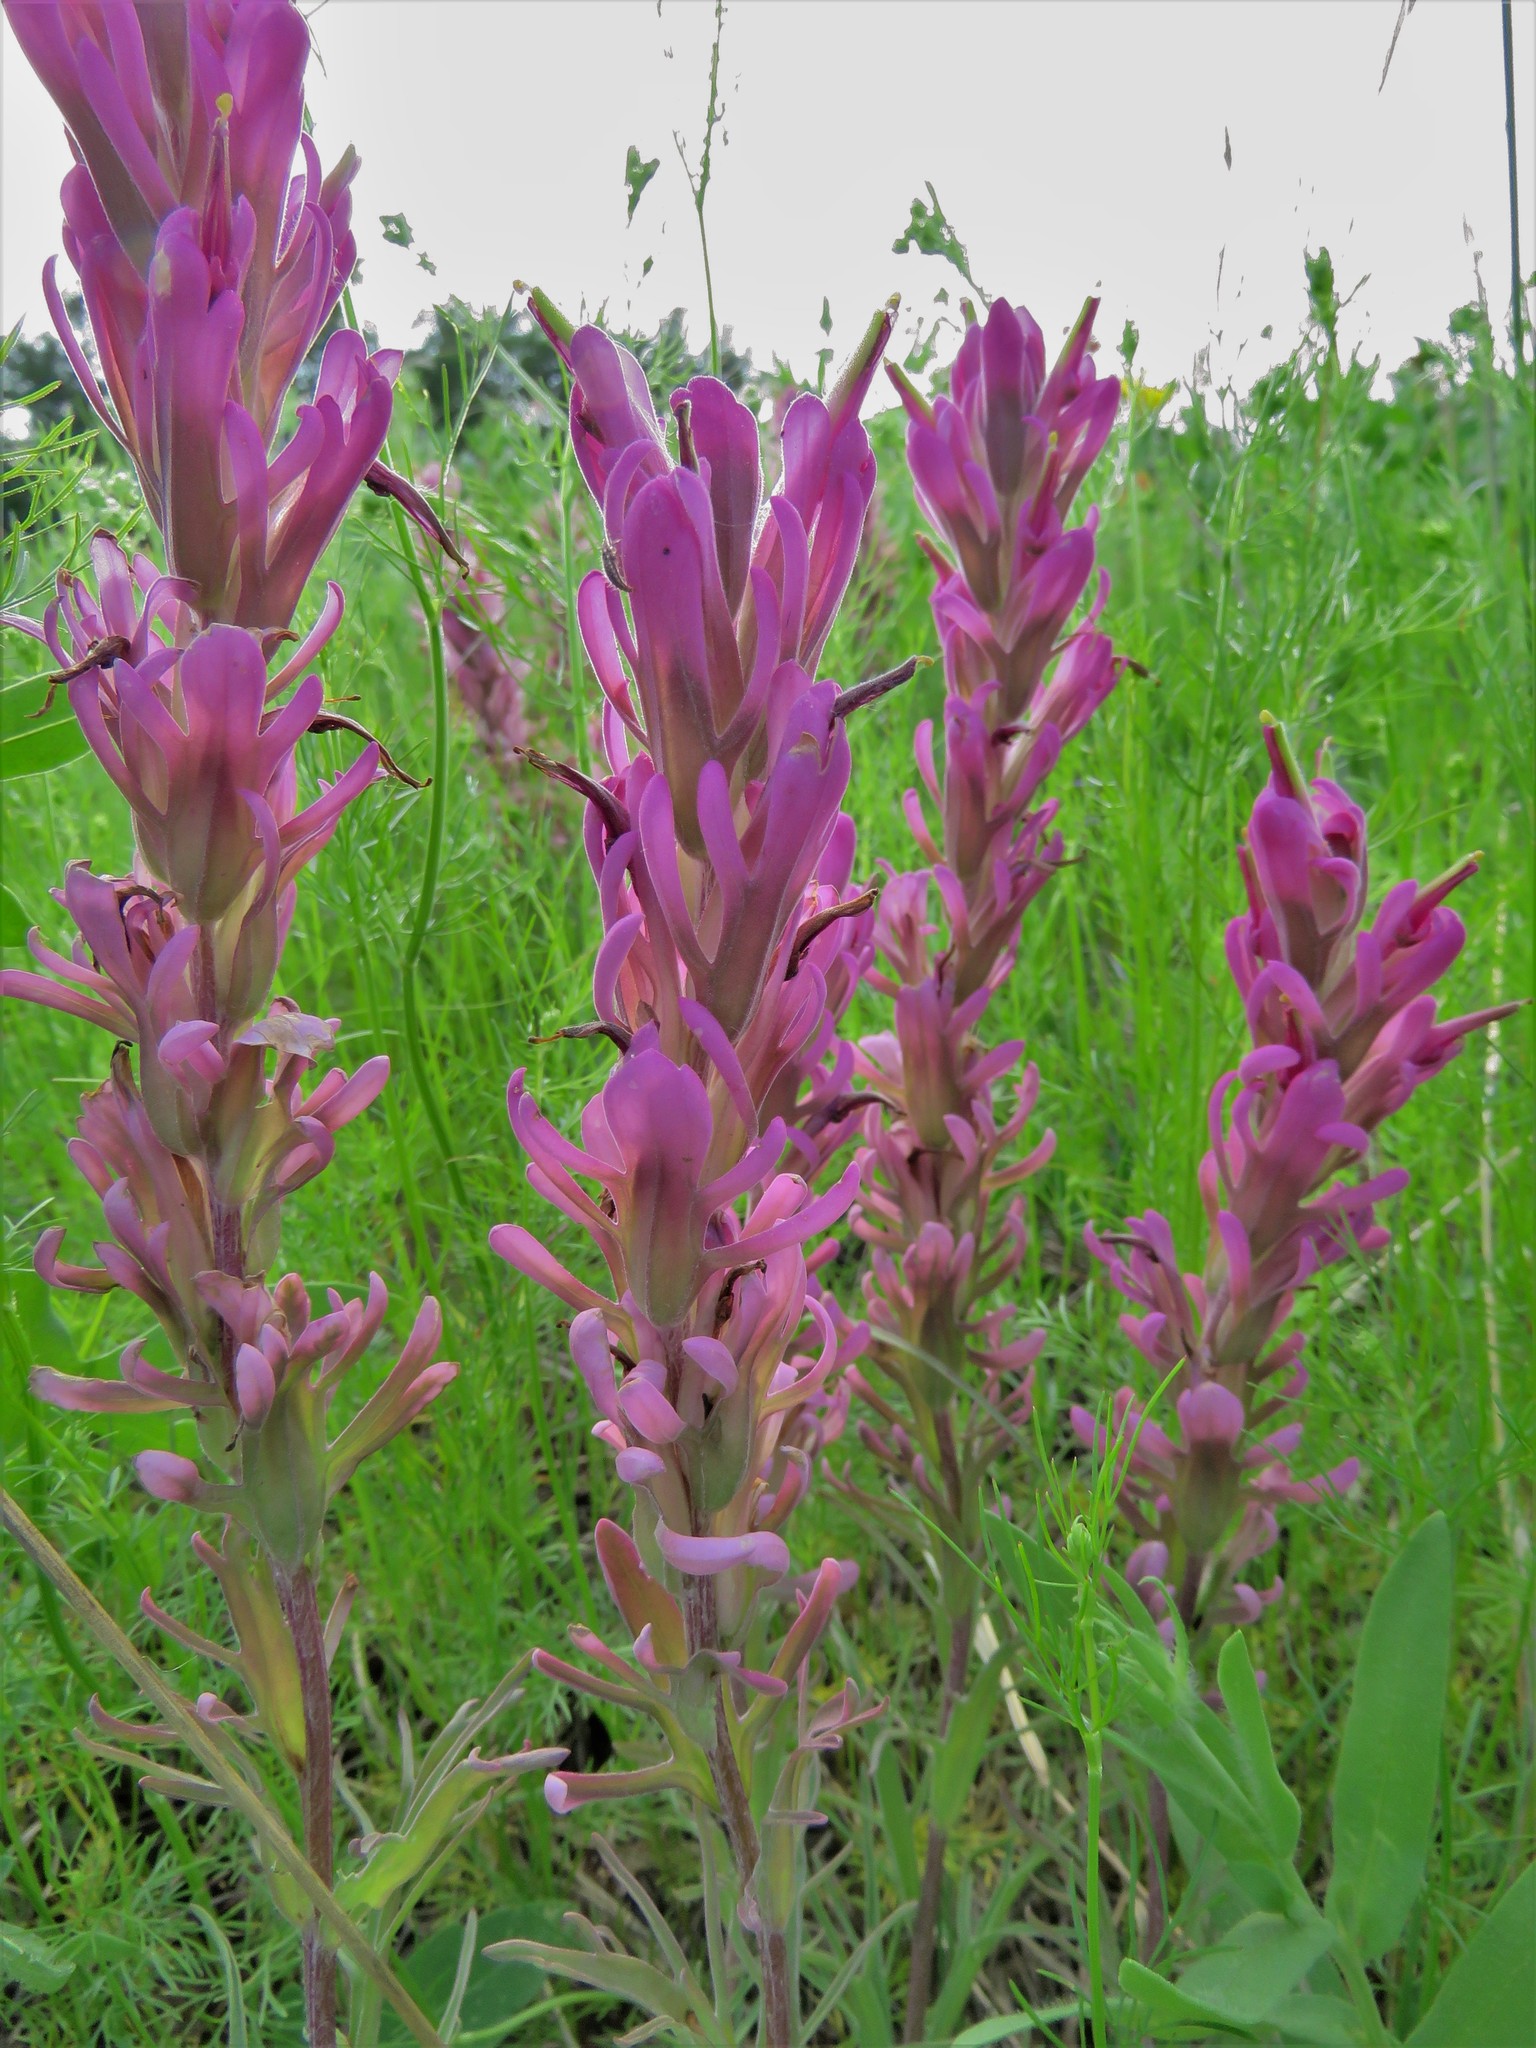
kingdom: Plantae
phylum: Tracheophyta
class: Magnoliopsida
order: Lamiales
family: Orobanchaceae
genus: Castilleja
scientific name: Castilleja purpurea
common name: Plains paintbrush
